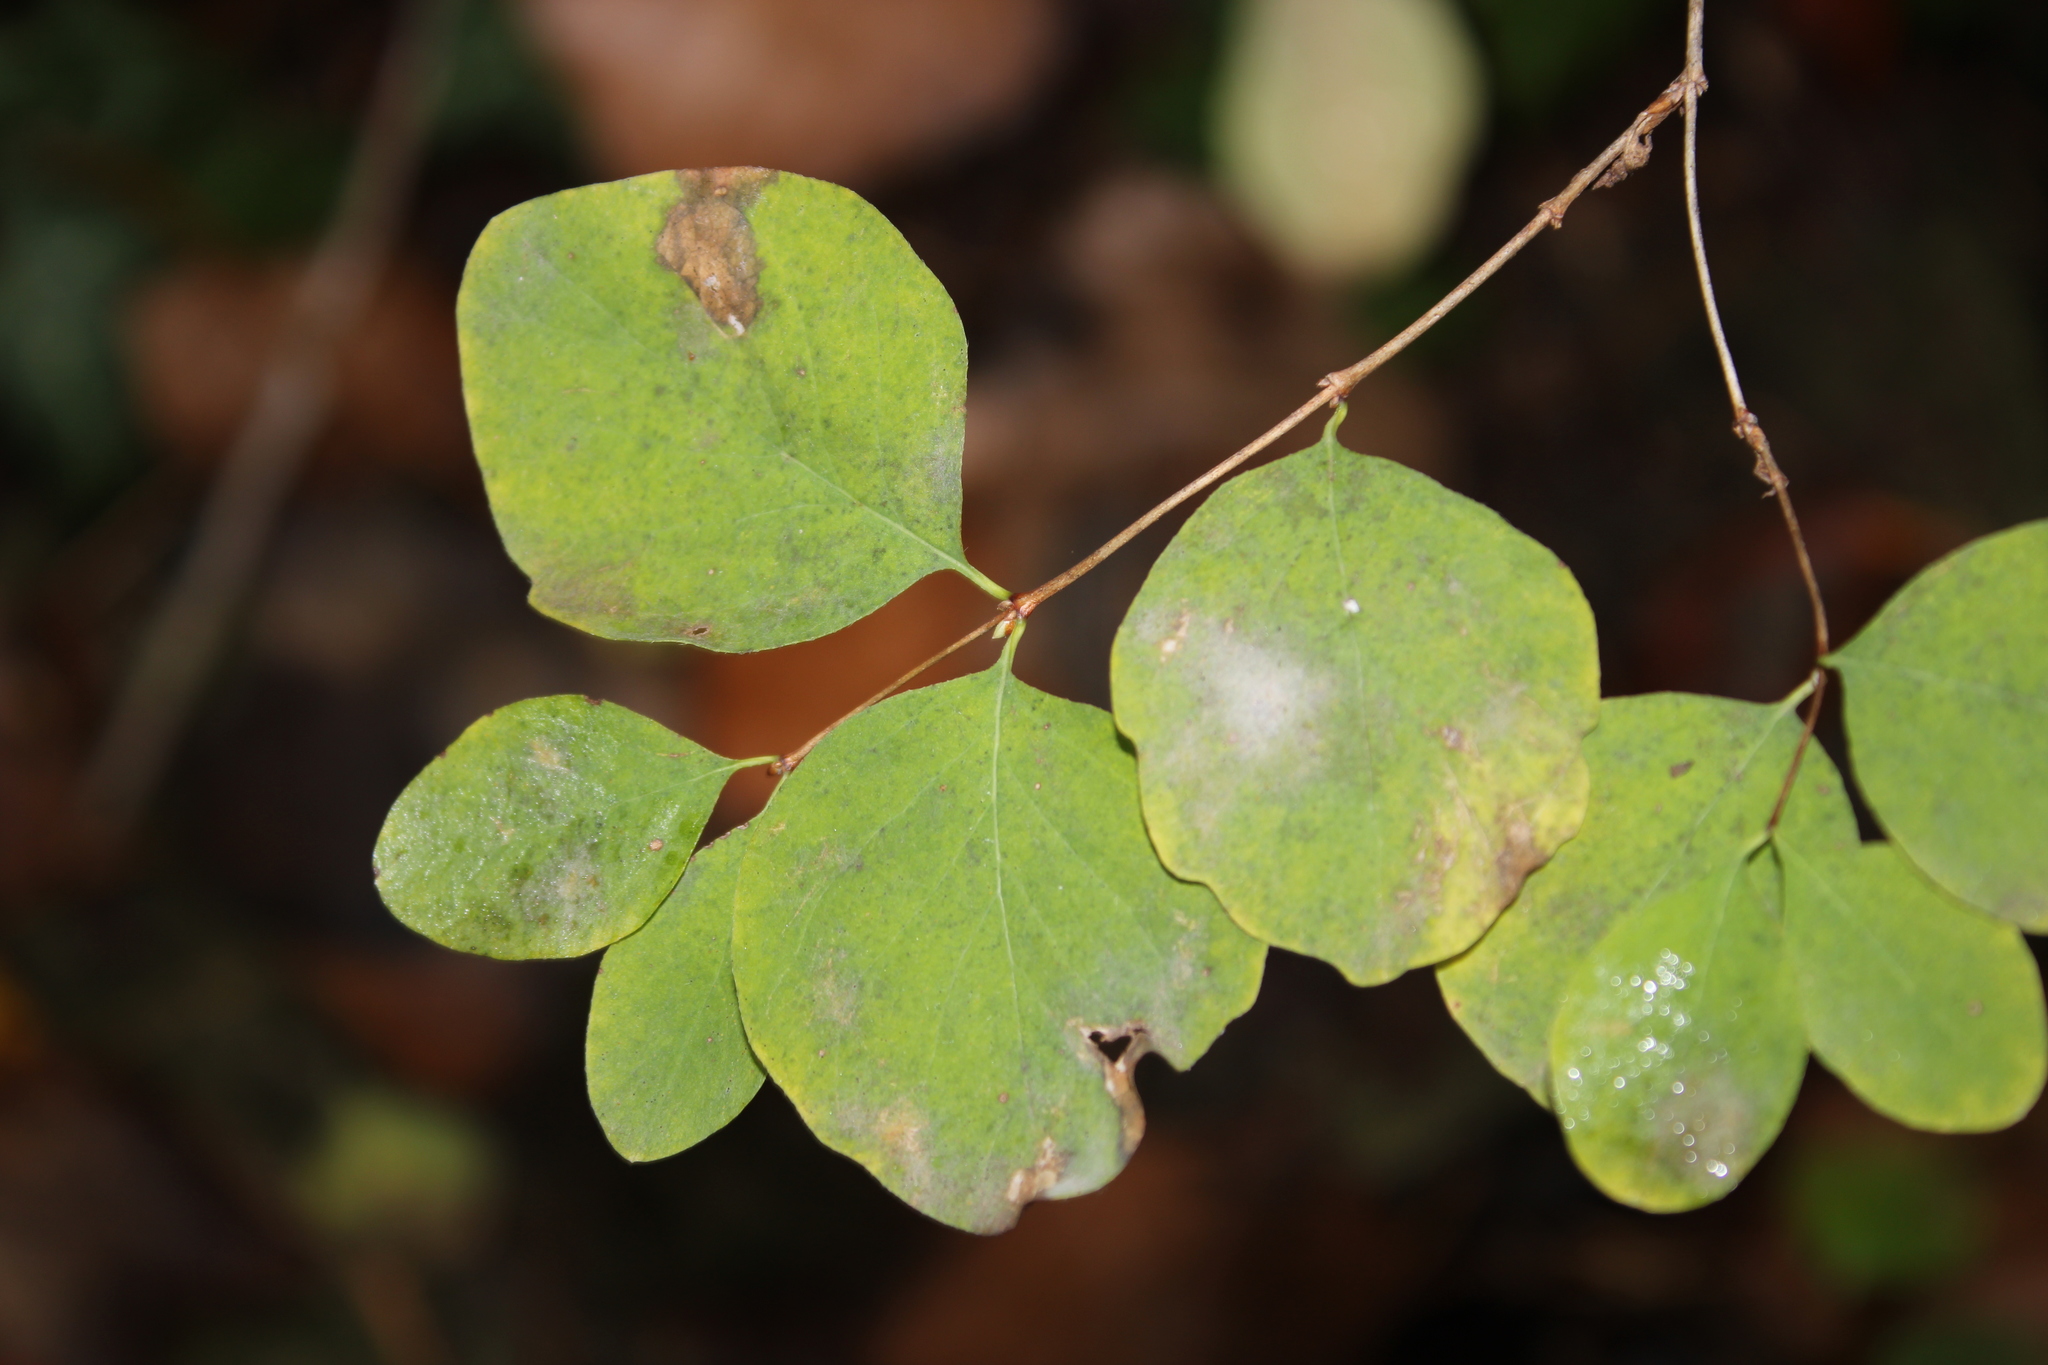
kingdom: Plantae
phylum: Tracheophyta
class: Magnoliopsida
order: Dipsacales
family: Caprifoliaceae
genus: Symphoricarpos
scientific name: Symphoricarpos albus
